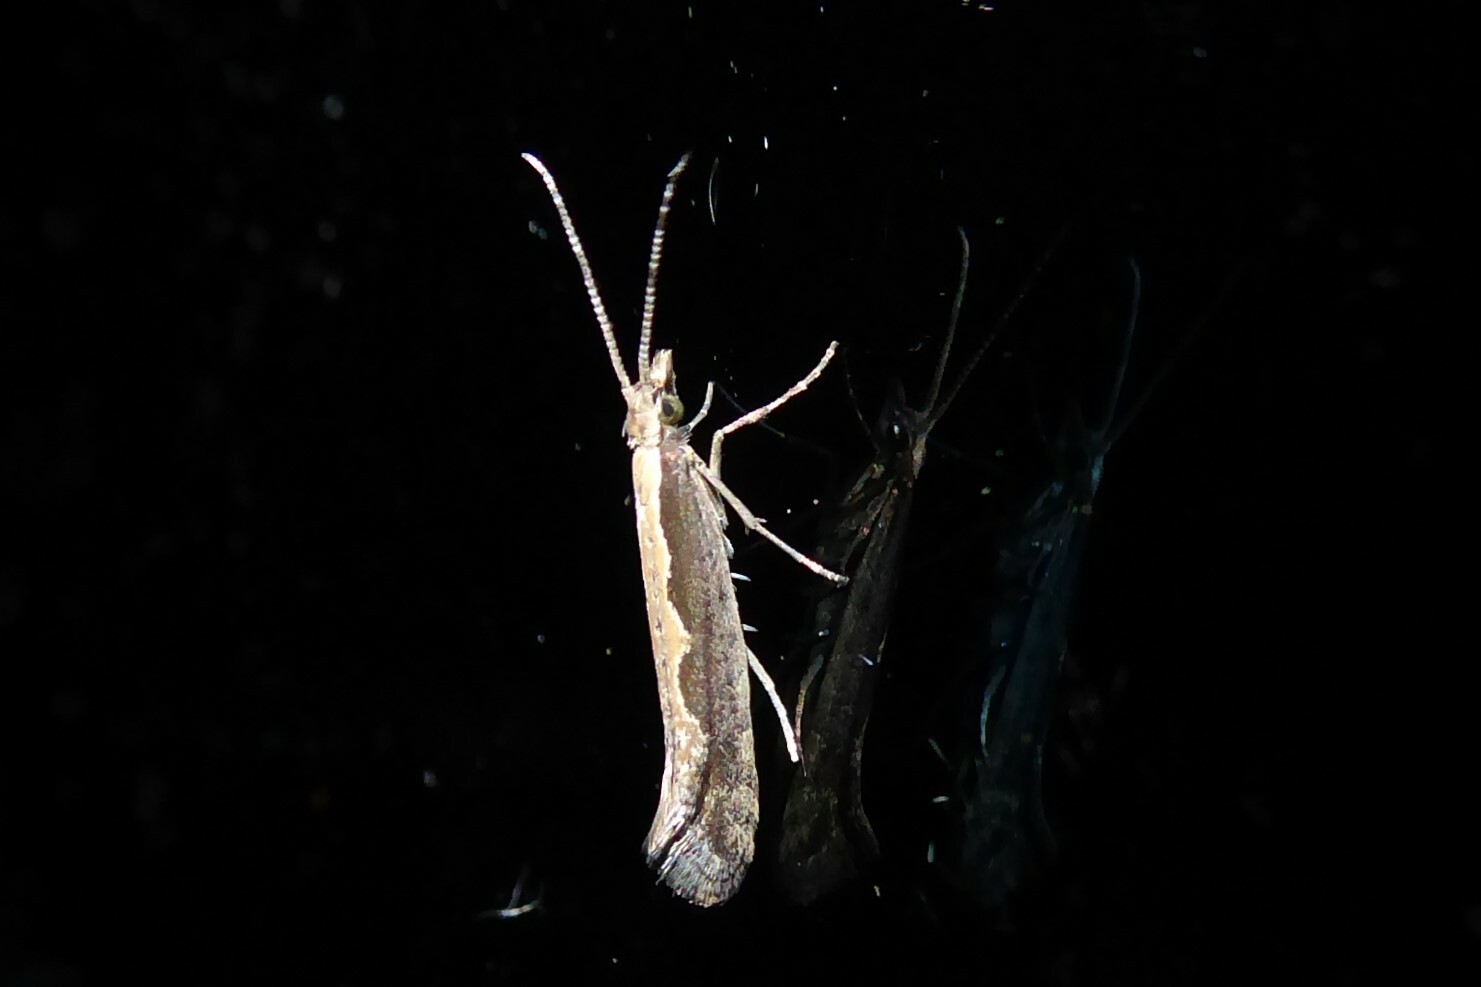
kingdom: Animalia
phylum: Arthropoda
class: Insecta
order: Lepidoptera
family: Plutellidae
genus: Plutella
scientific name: Plutella xylostella
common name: Diamond-back moth
